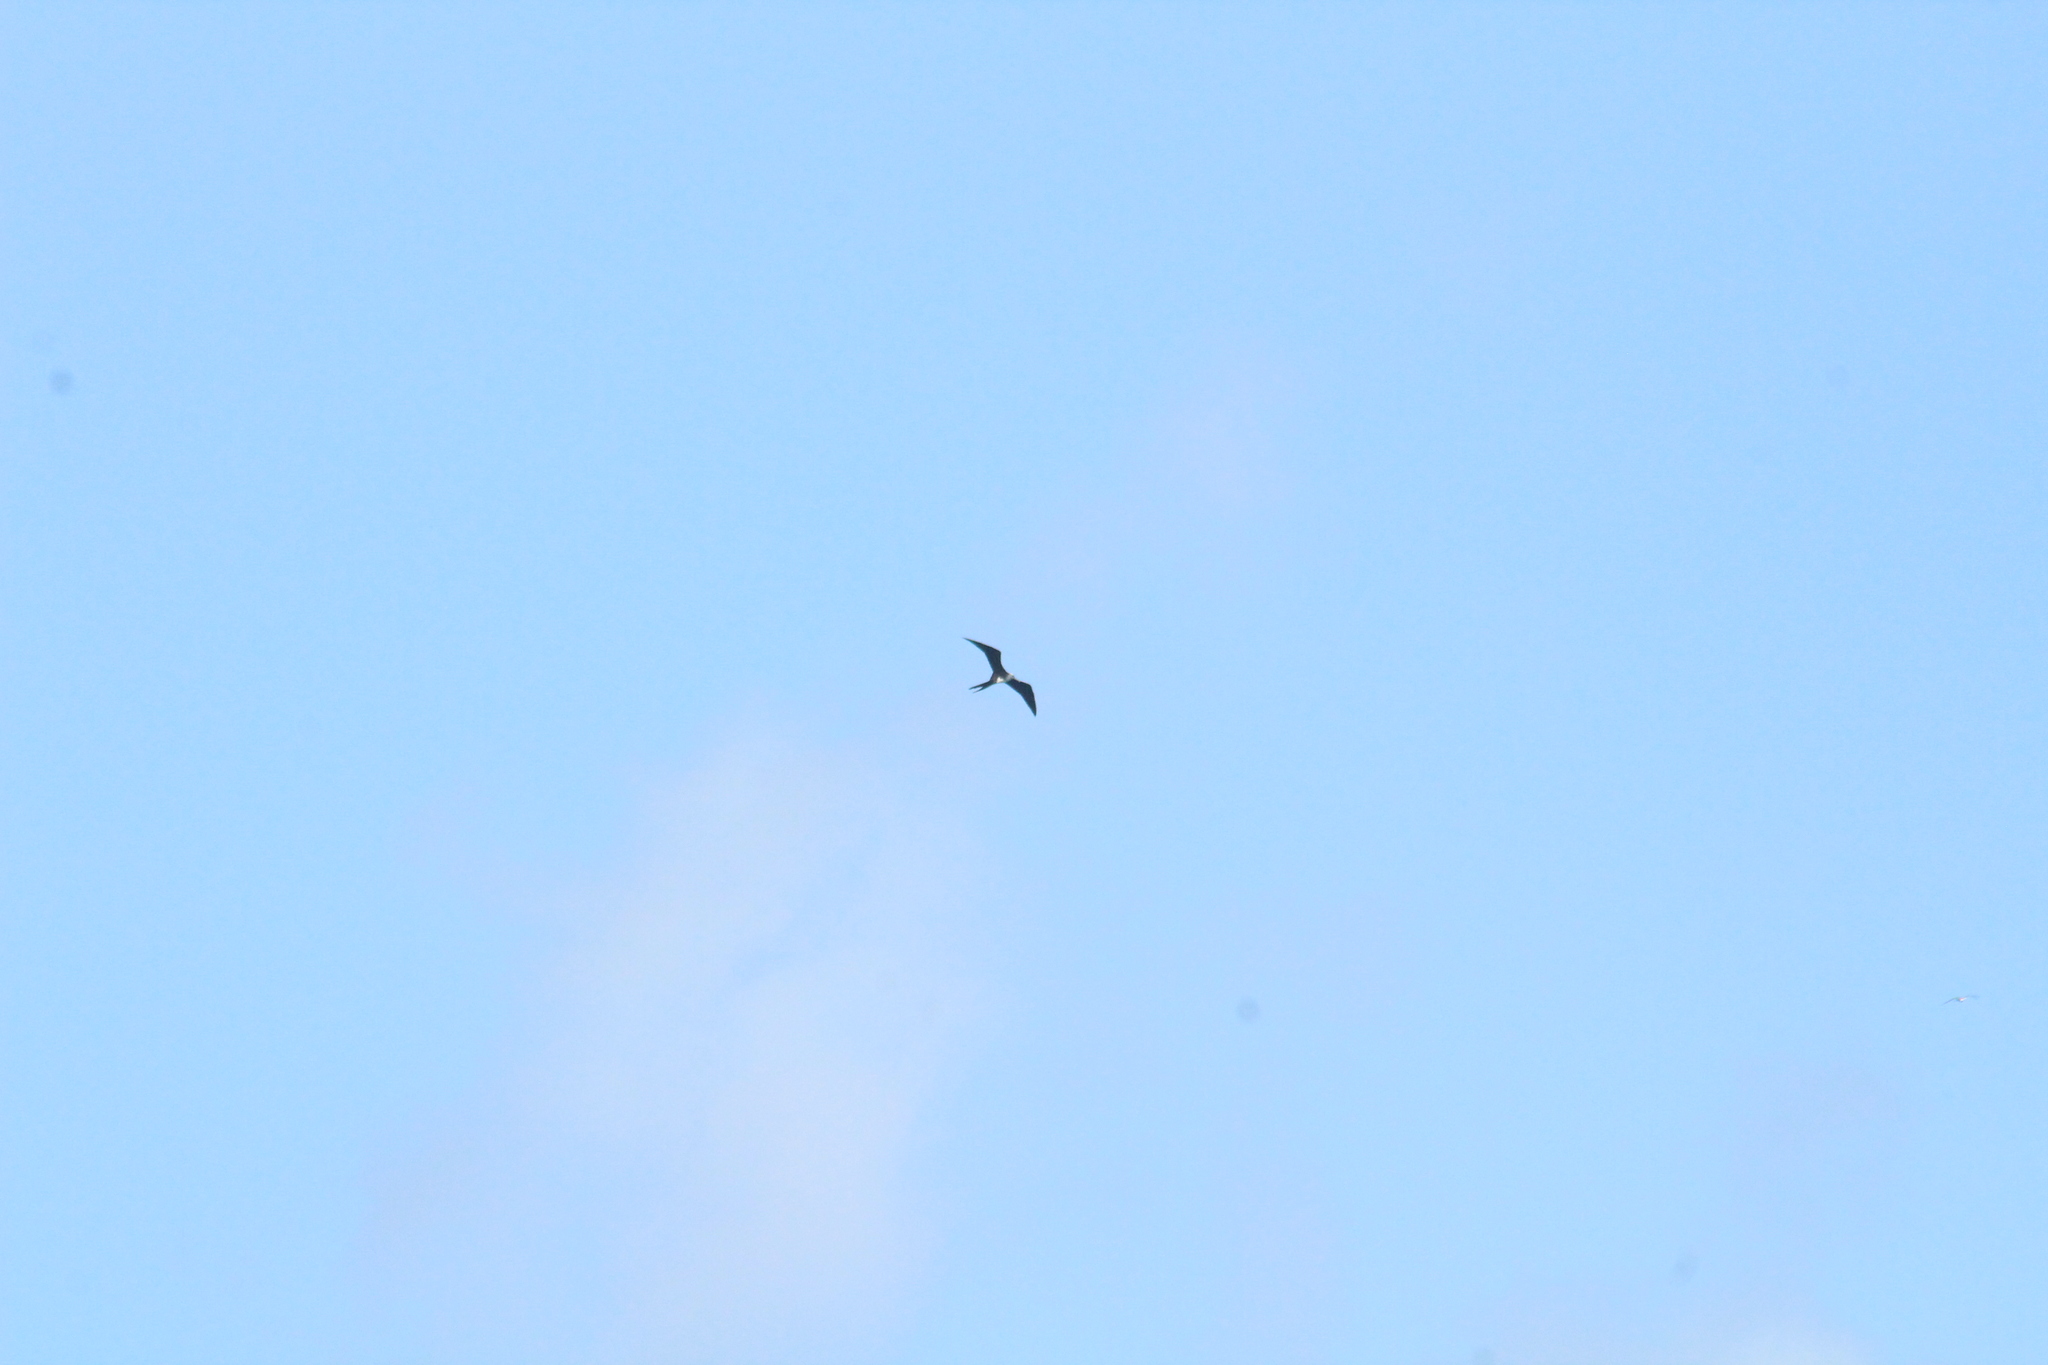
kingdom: Animalia
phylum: Chordata
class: Aves
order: Suliformes
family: Fregatidae
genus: Fregata
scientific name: Fregata magnificens
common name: Magnificent frigatebird
